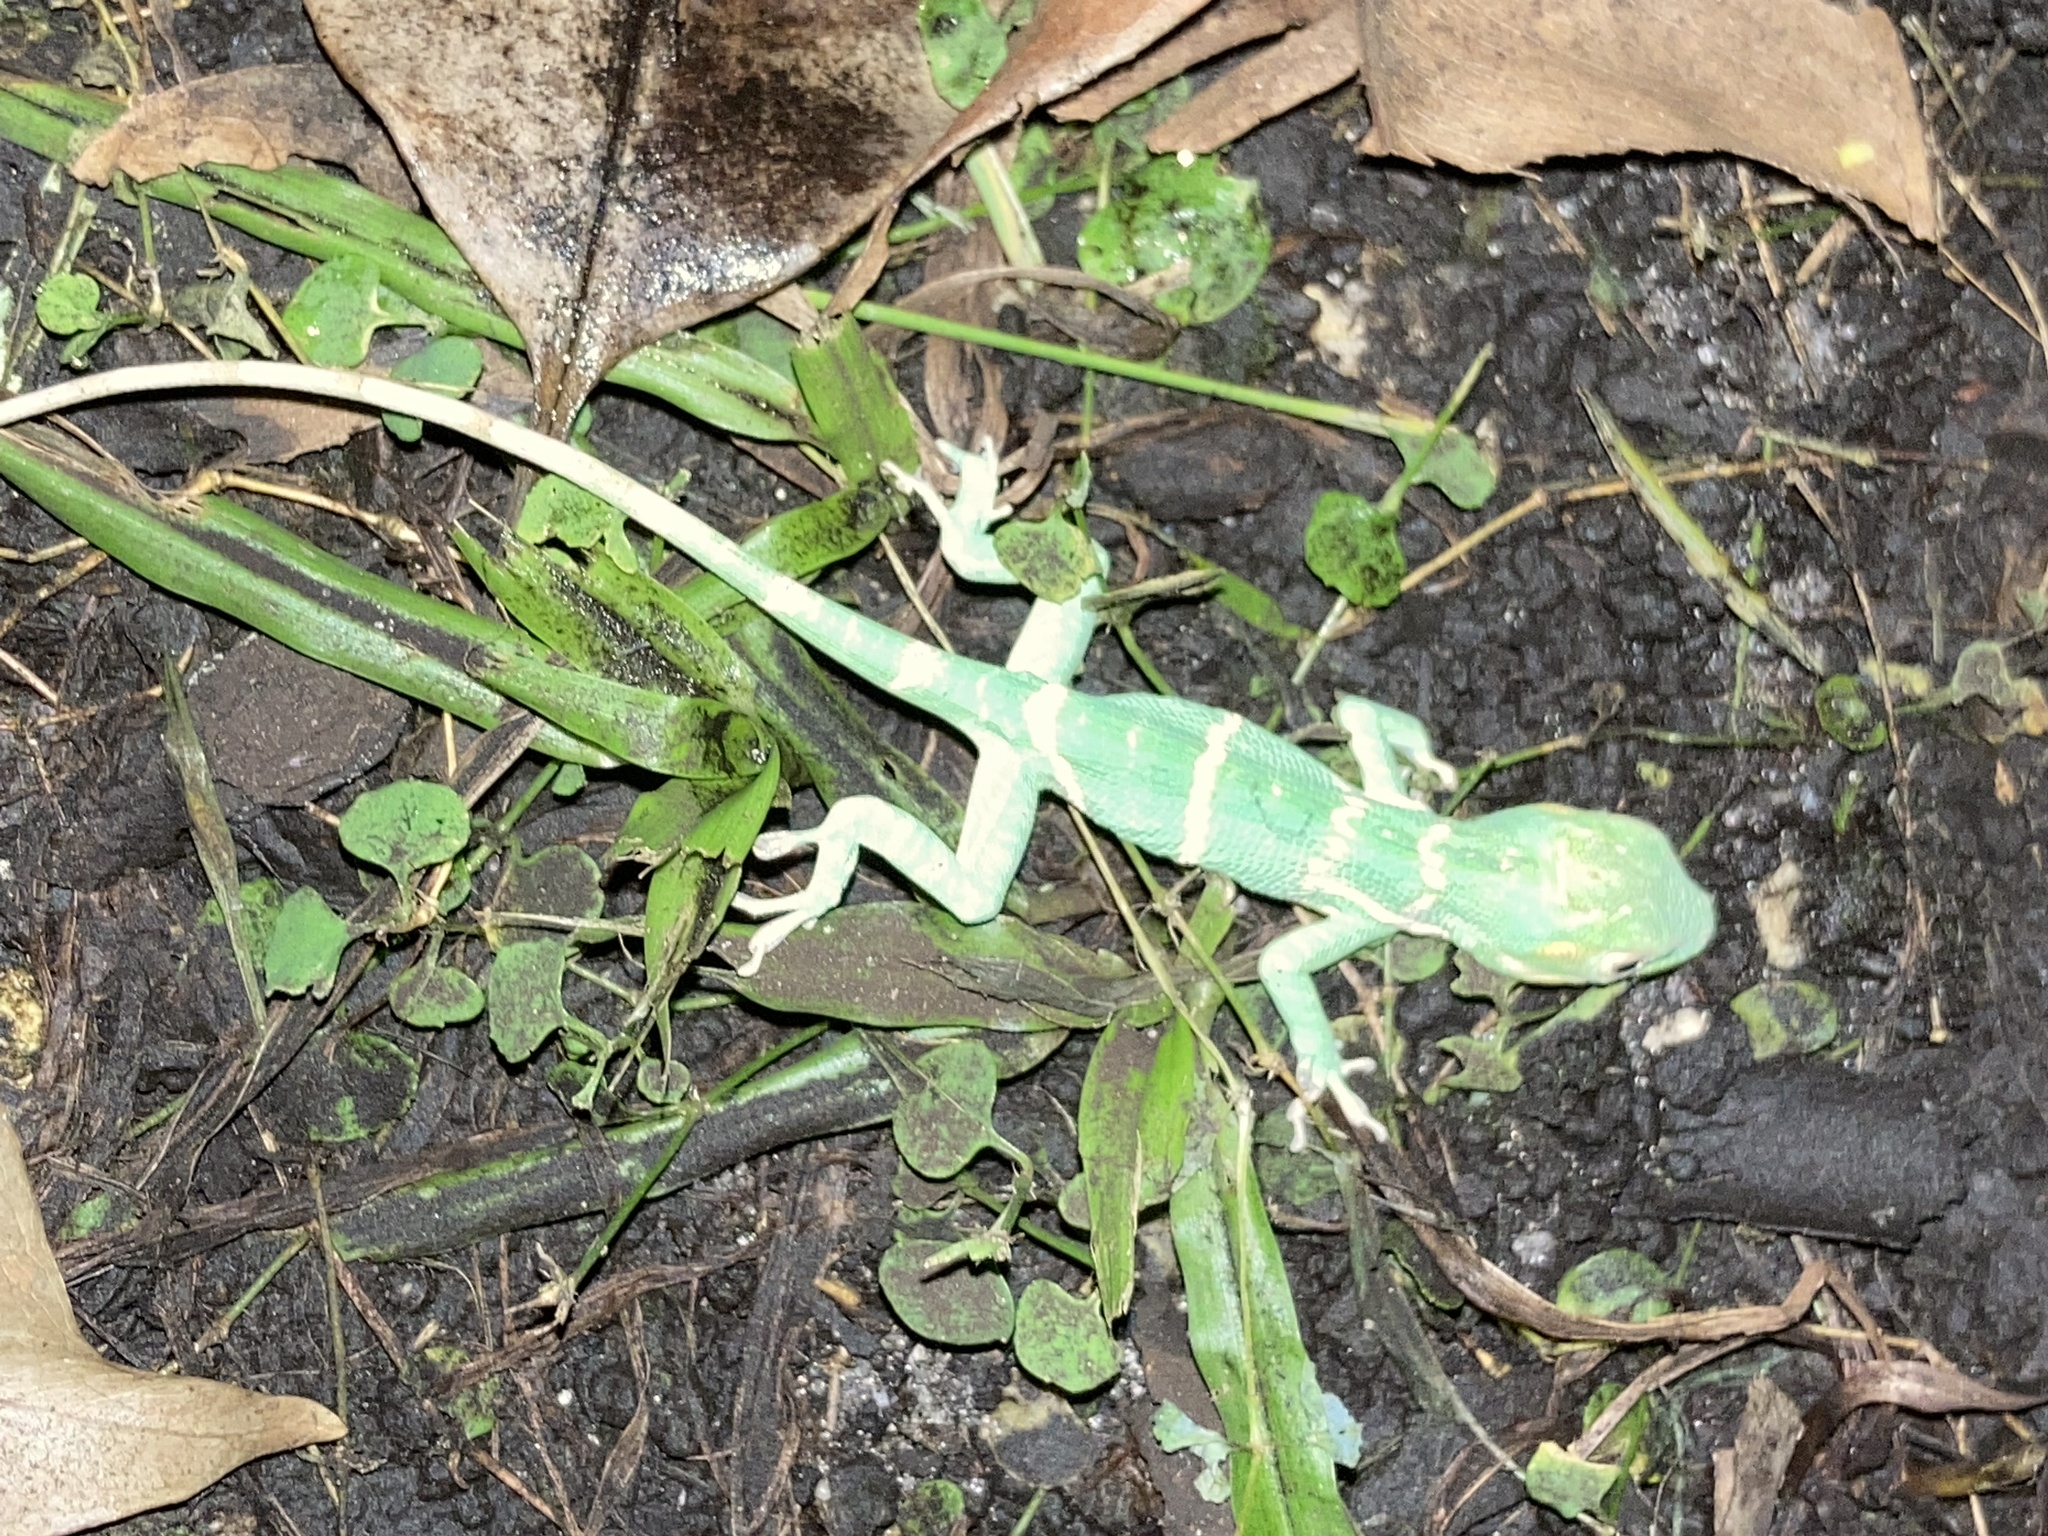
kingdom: Animalia
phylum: Chordata
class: Squamata
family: Dactyloidae
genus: Anolis
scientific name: Anolis equestris
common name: Knight anole
